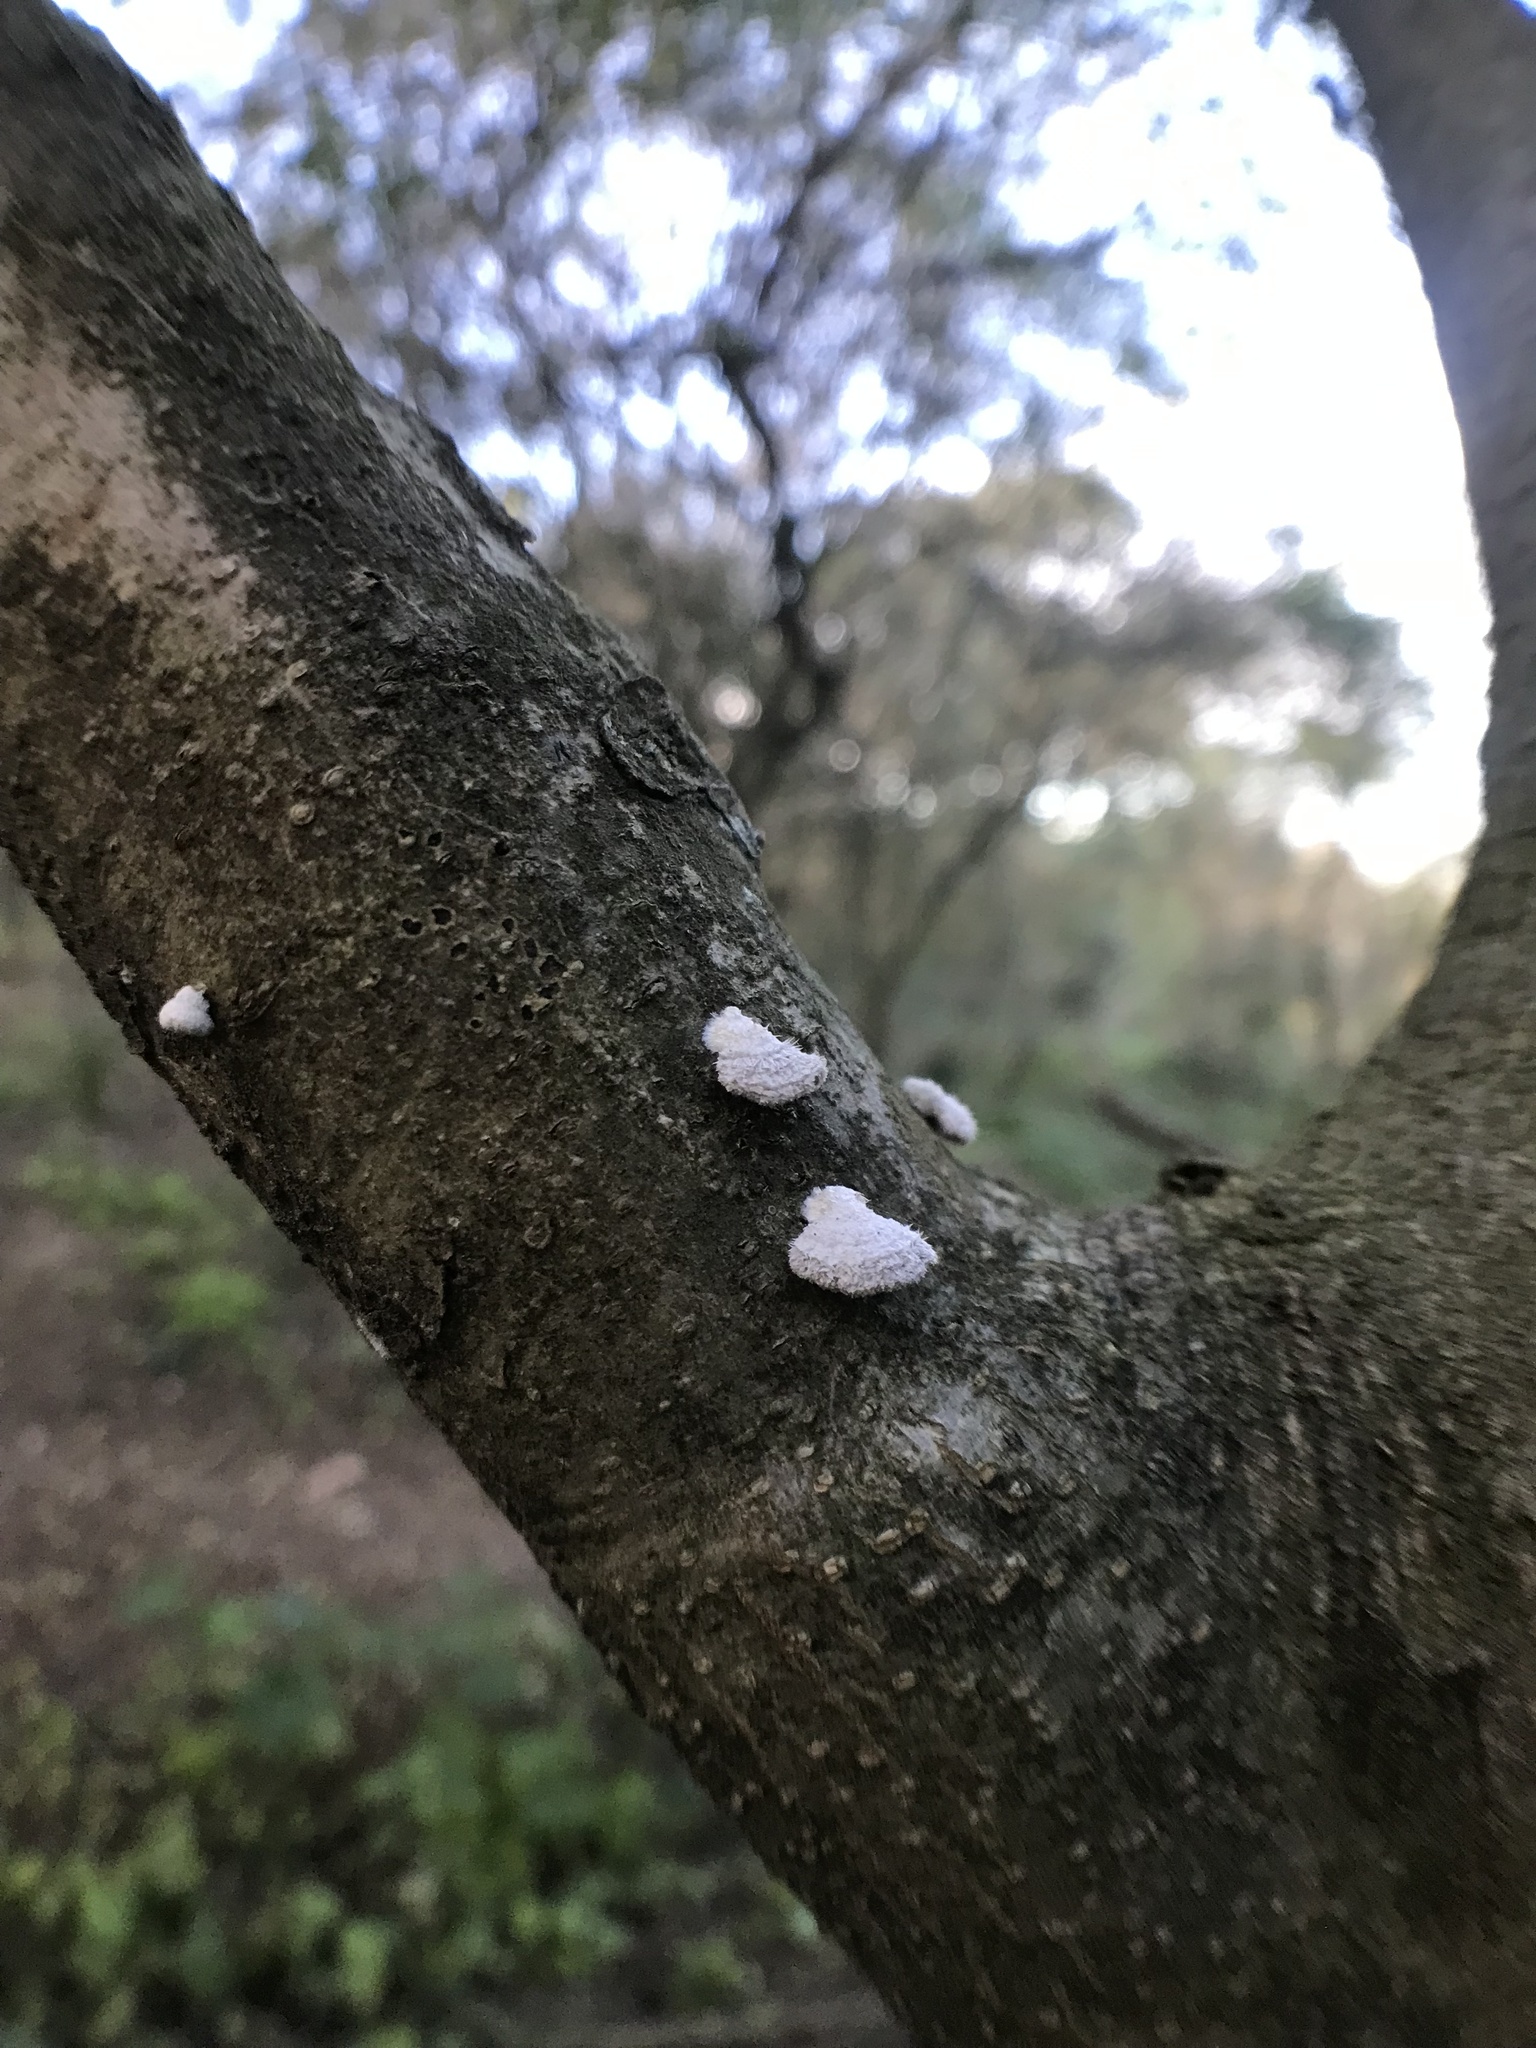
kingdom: Fungi
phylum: Basidiomycota
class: Agaricomycetes
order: Agaricales
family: Schizophyllaceae
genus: Schizophyllum
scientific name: Schizophyllum commune
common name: Common porecrust
